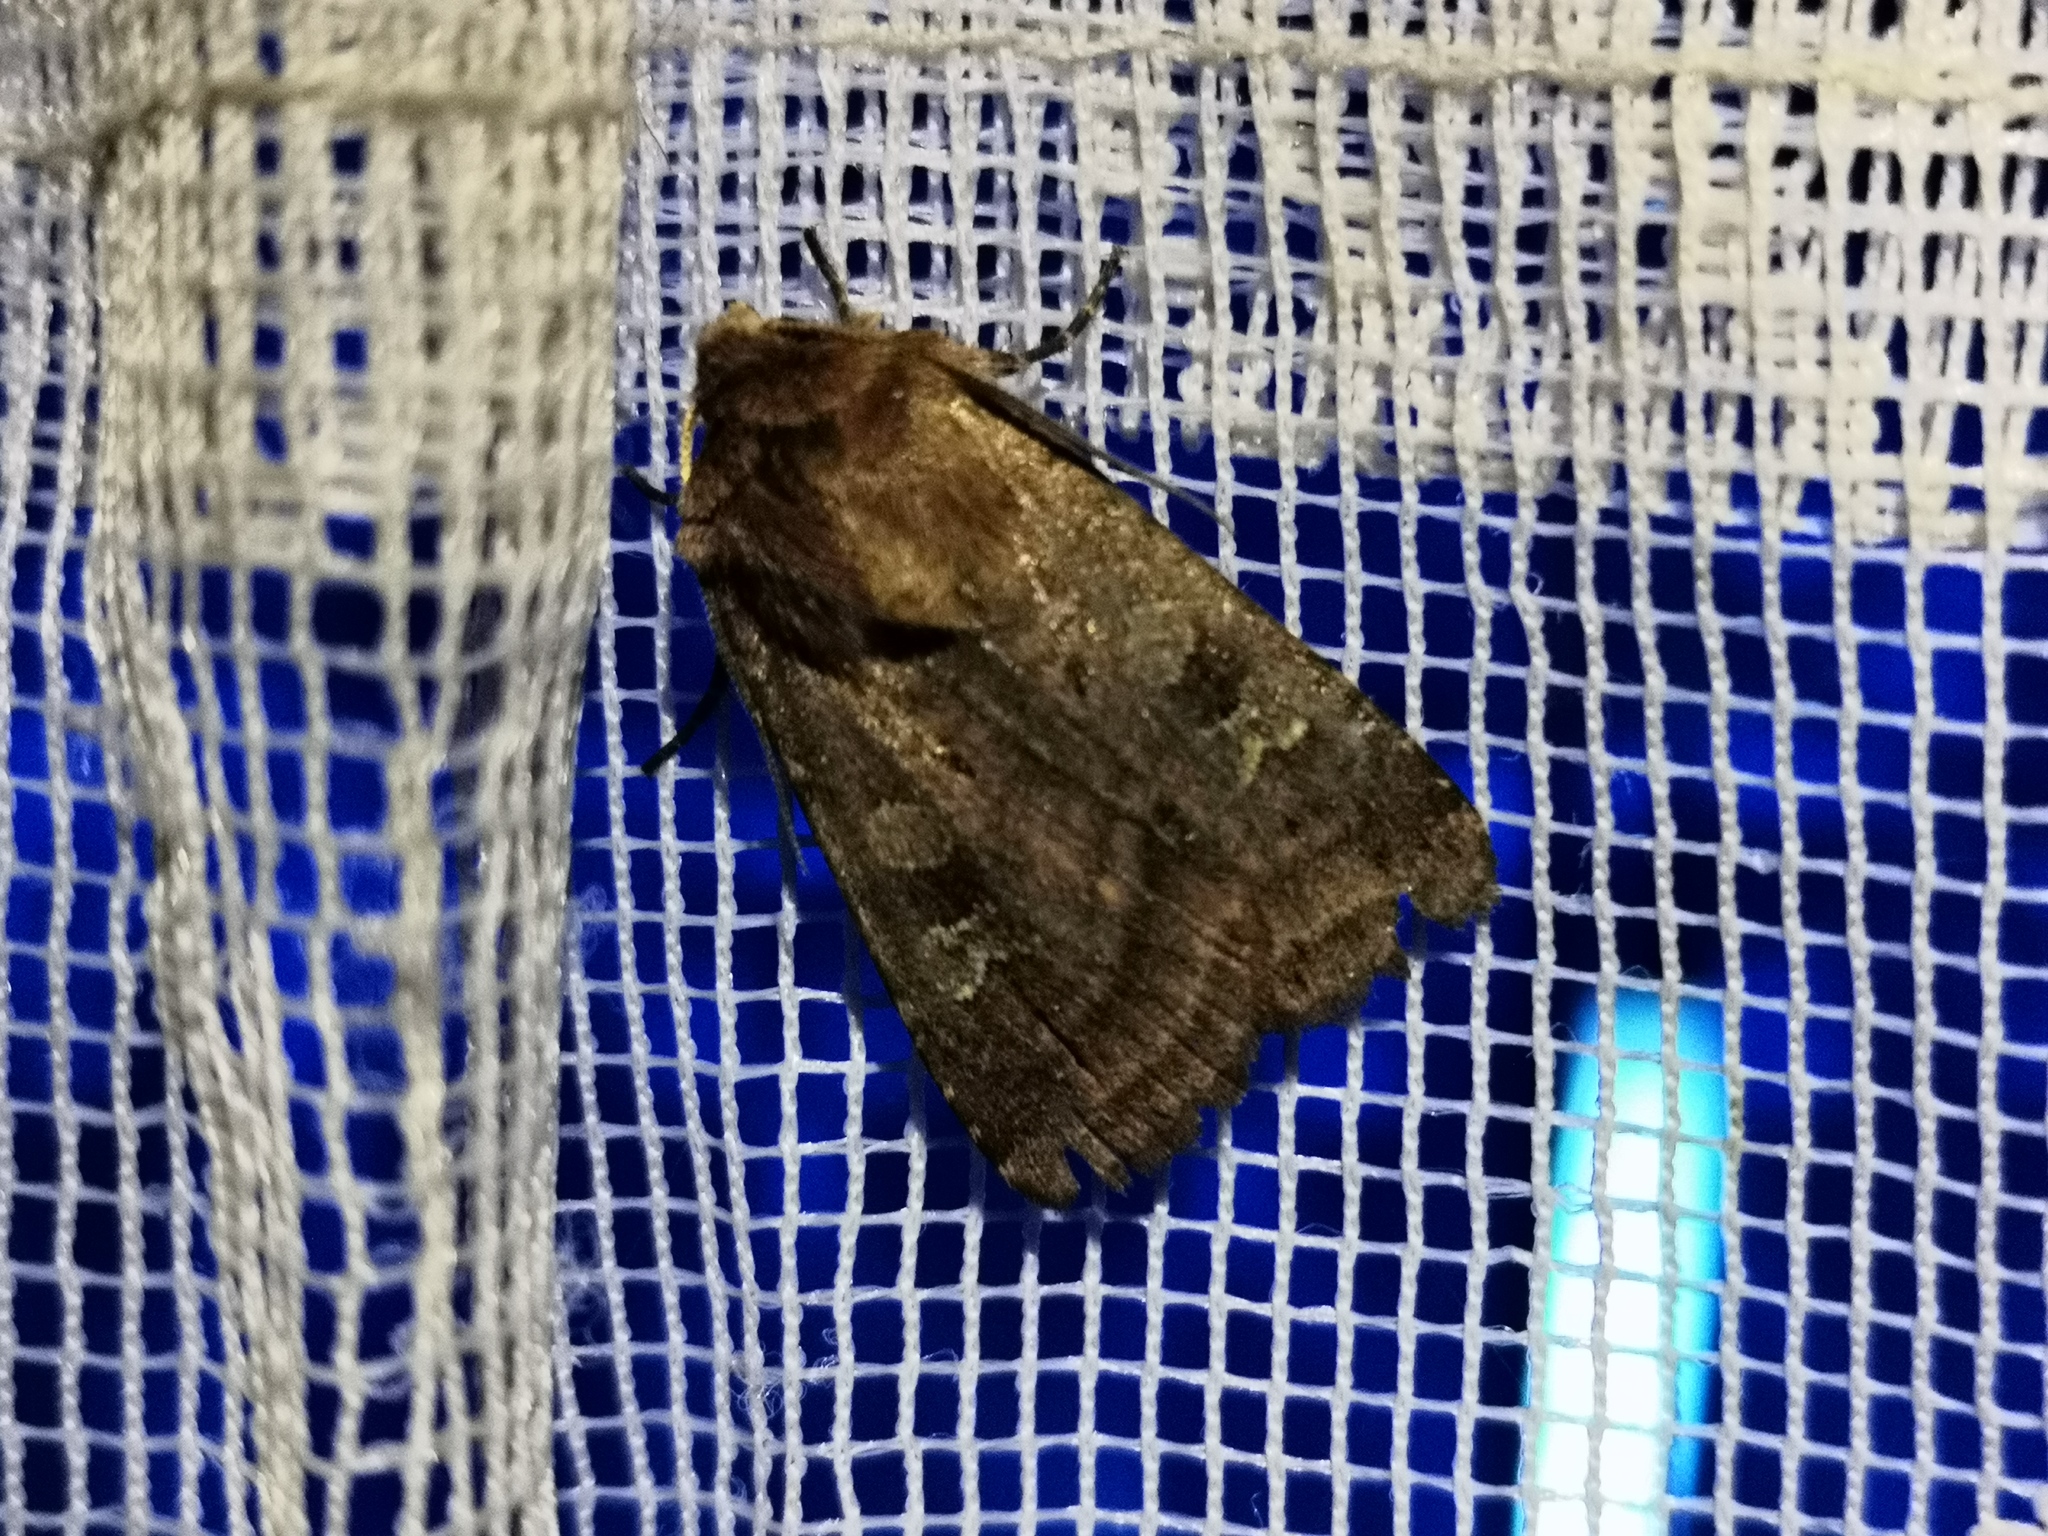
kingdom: Animalia
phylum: Arthropoda
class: Insecta
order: Lepidoptera
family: Noctuidae
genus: Diarsia
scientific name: Diarsia rubi
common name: Small square-spot
